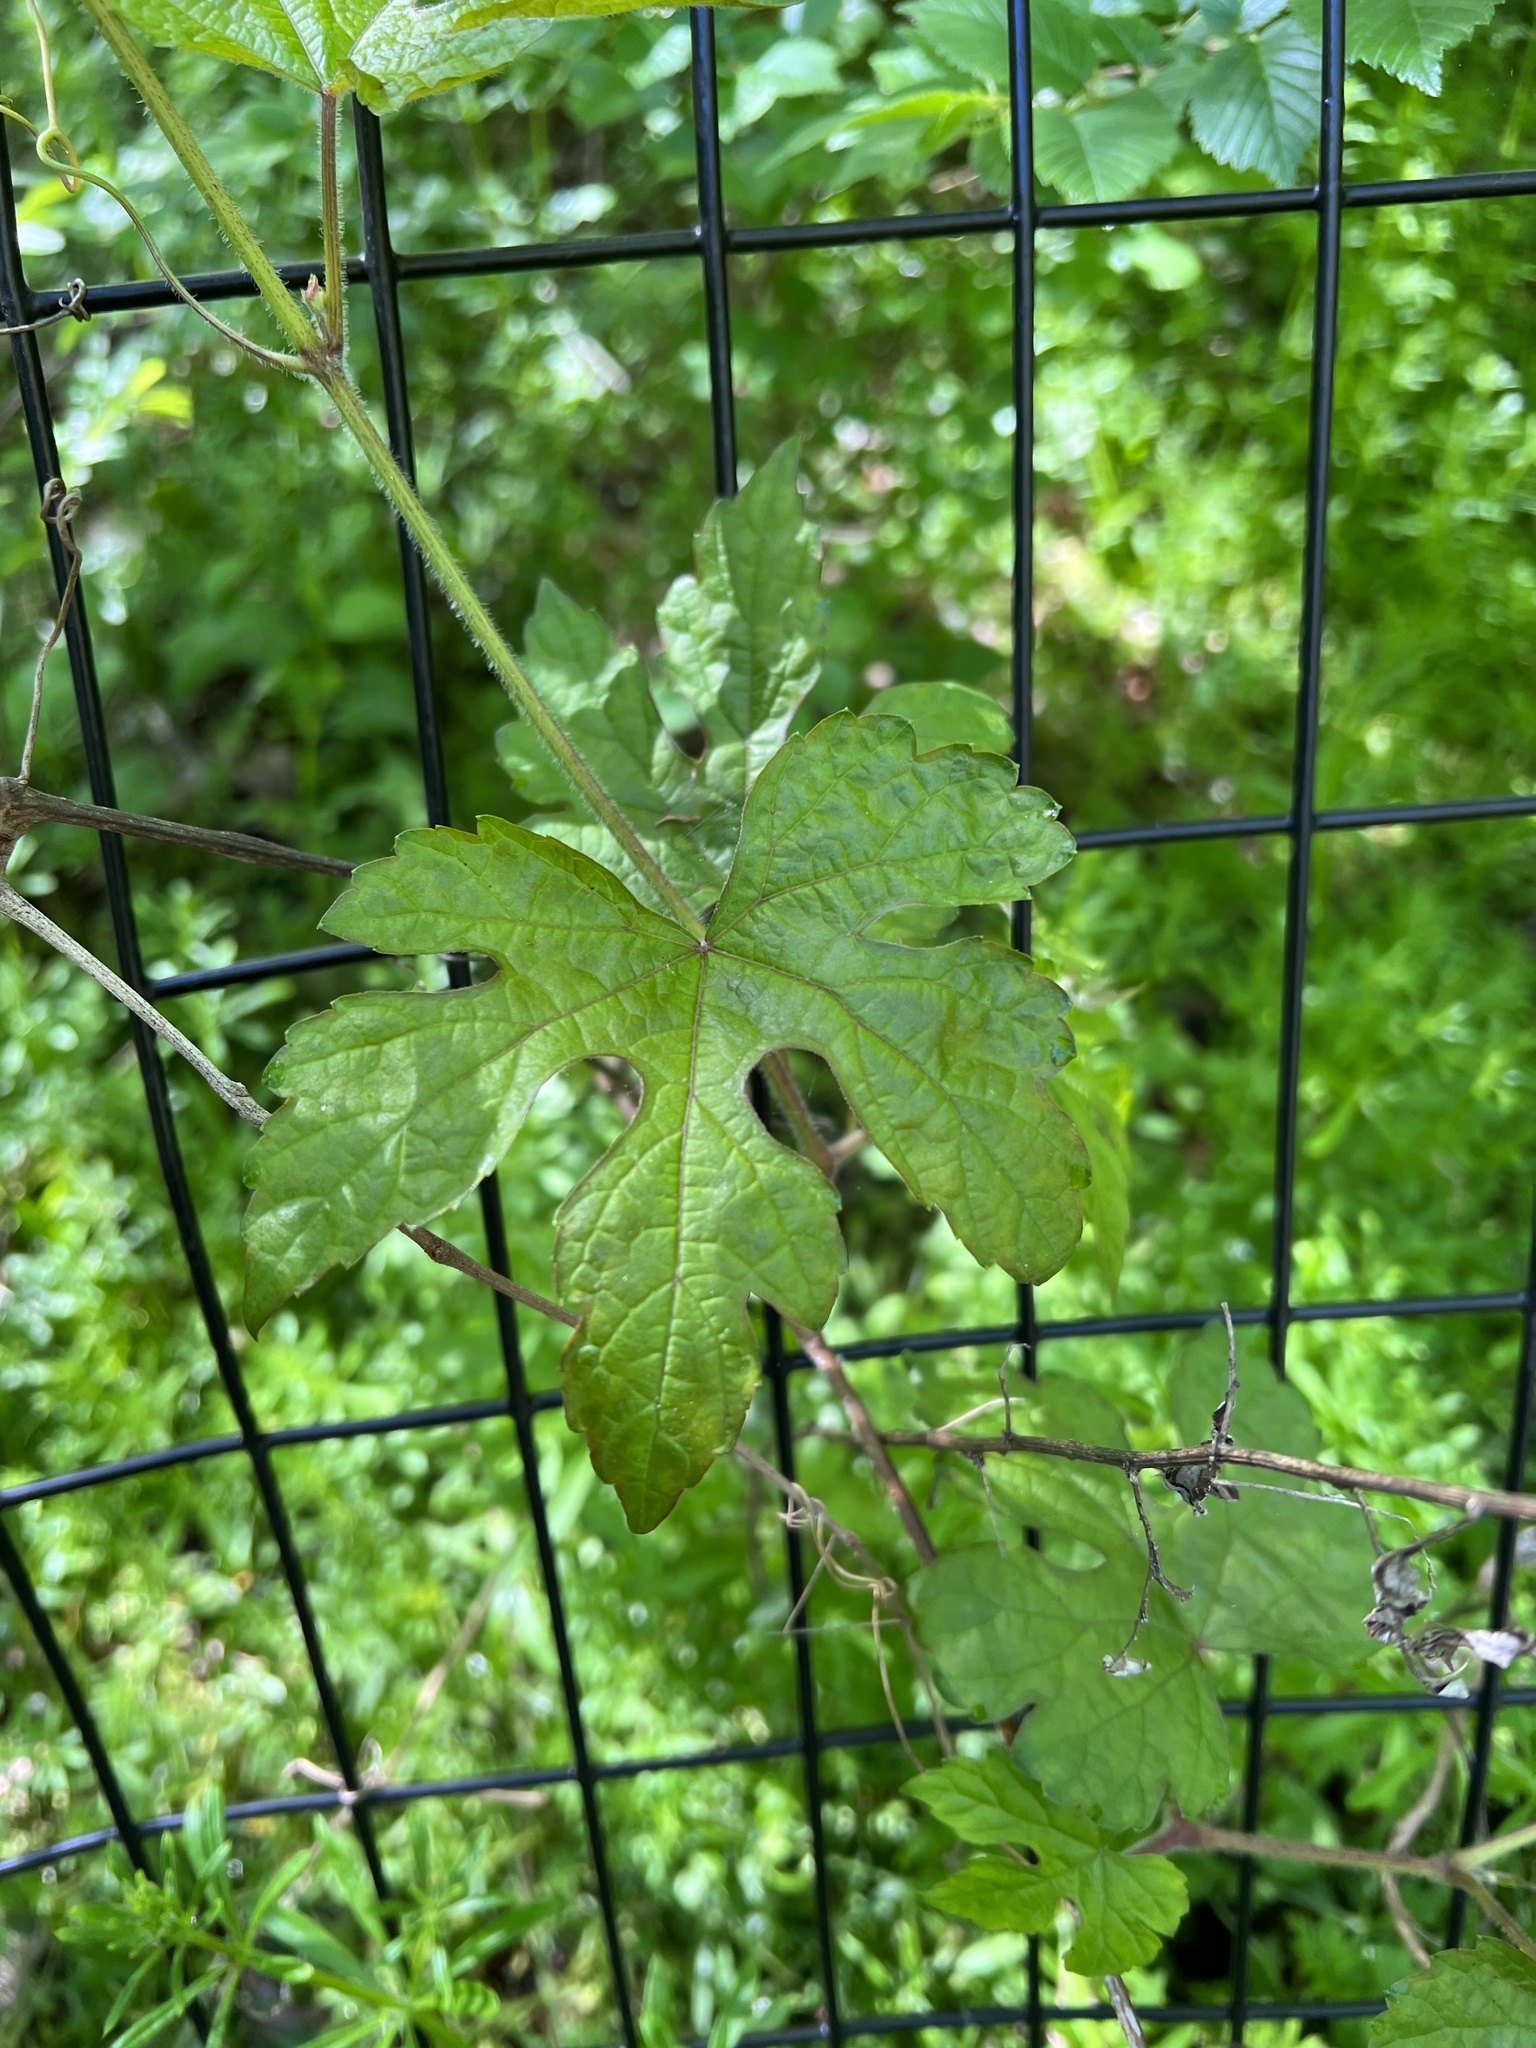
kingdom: Plantae
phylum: Tracheophyta
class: Magnoliopsida
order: Vitales
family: Vitaceae
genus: Ampelopsis
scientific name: Ampelopsis glandulosa
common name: Amur peppervine
